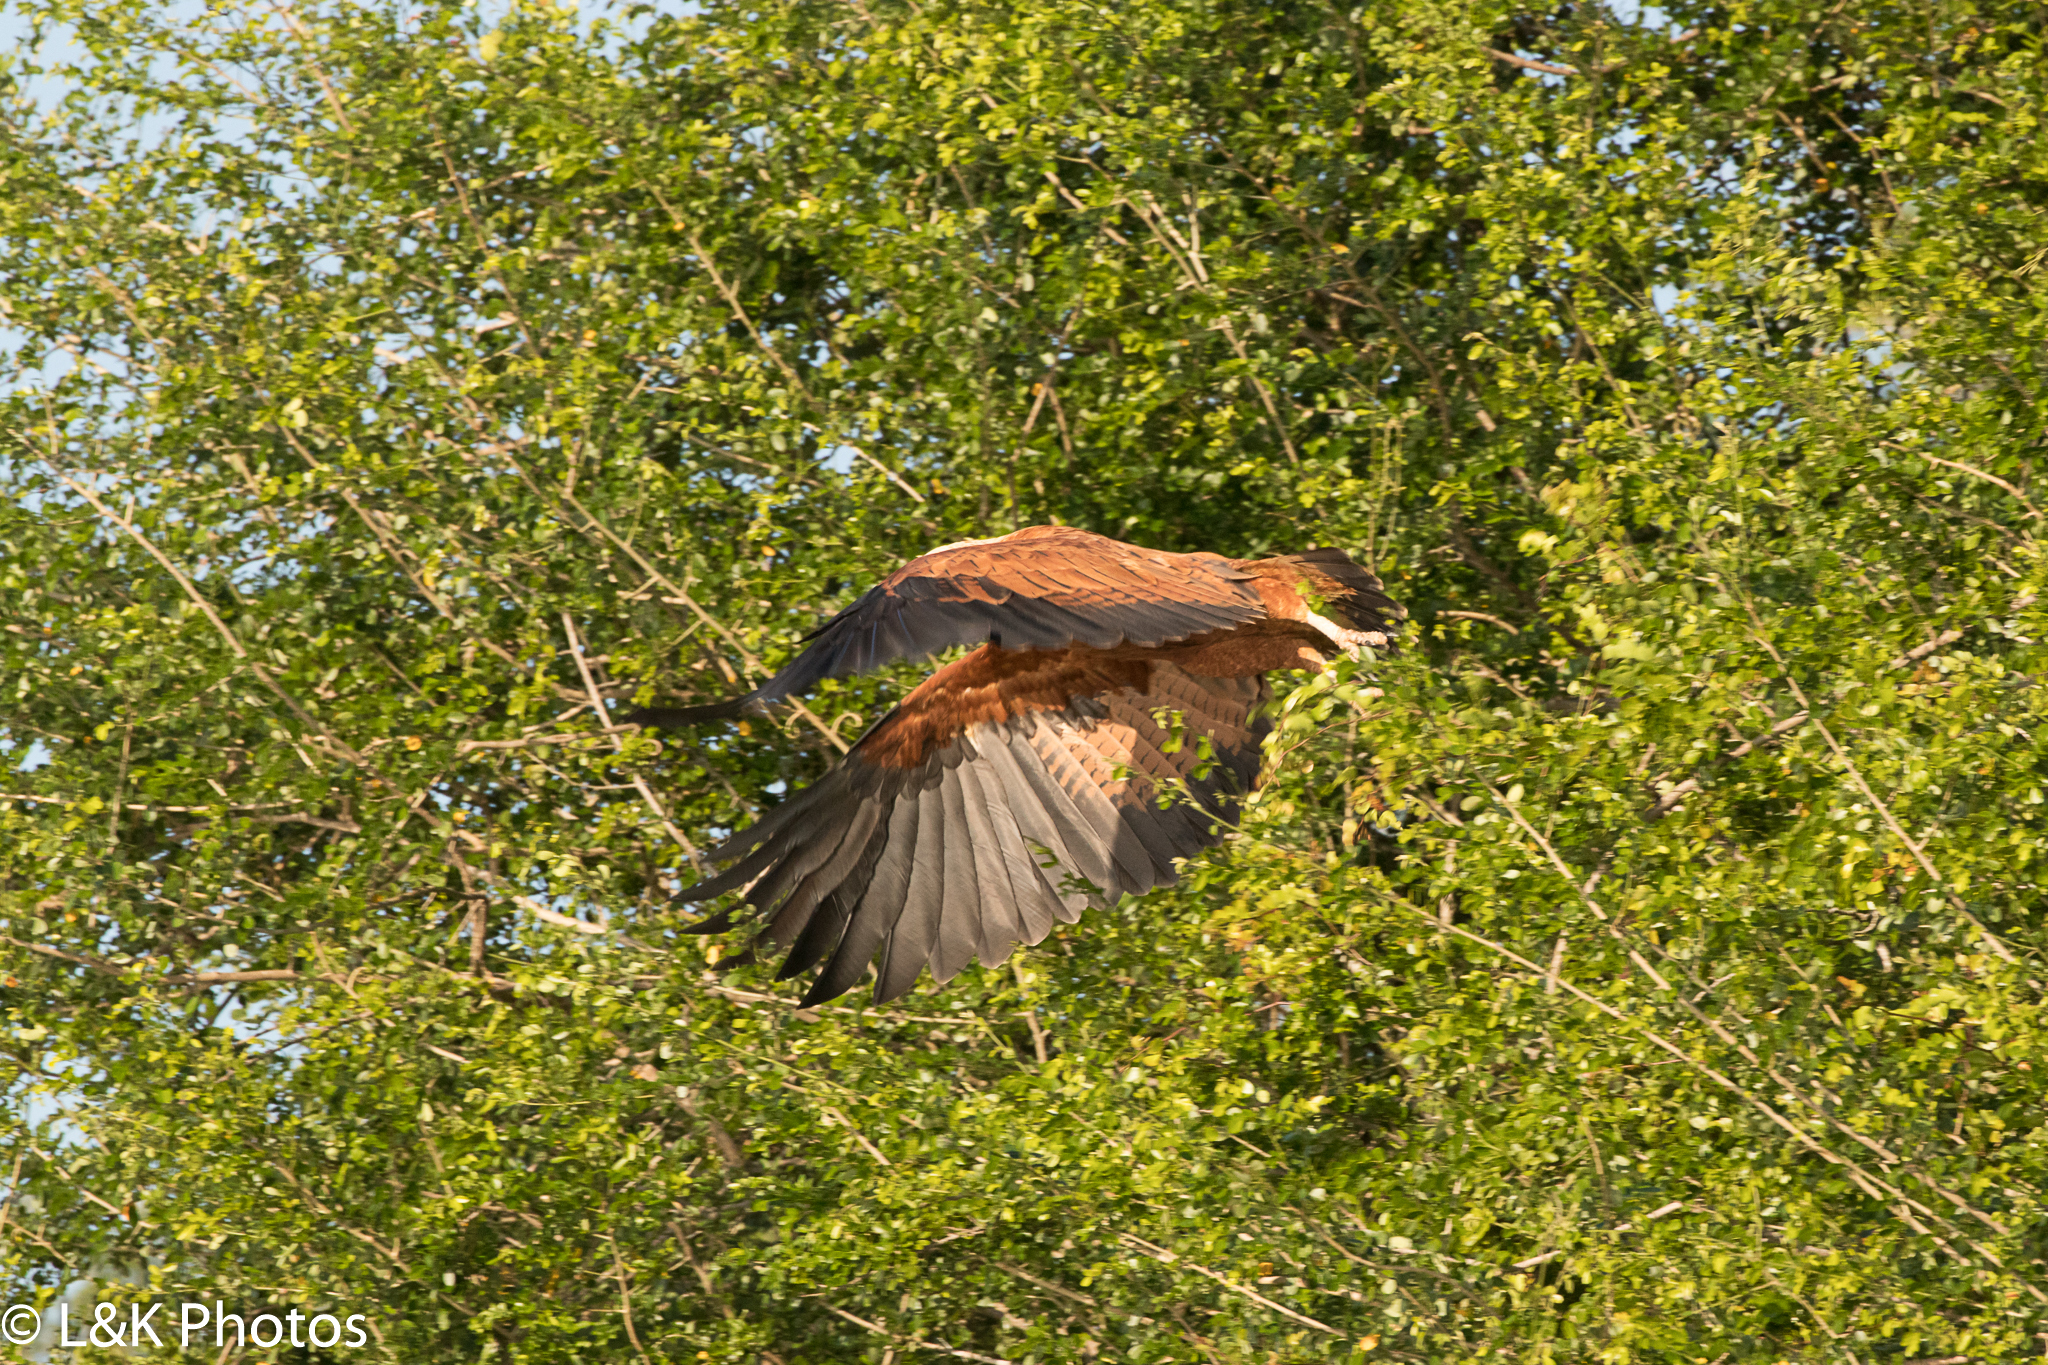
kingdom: Animalia
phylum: Chordata
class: Aves
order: Accipitriformes
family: Accipitridae
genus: Busarellus
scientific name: Busarellus nigricollis
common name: Black-collared hawk
